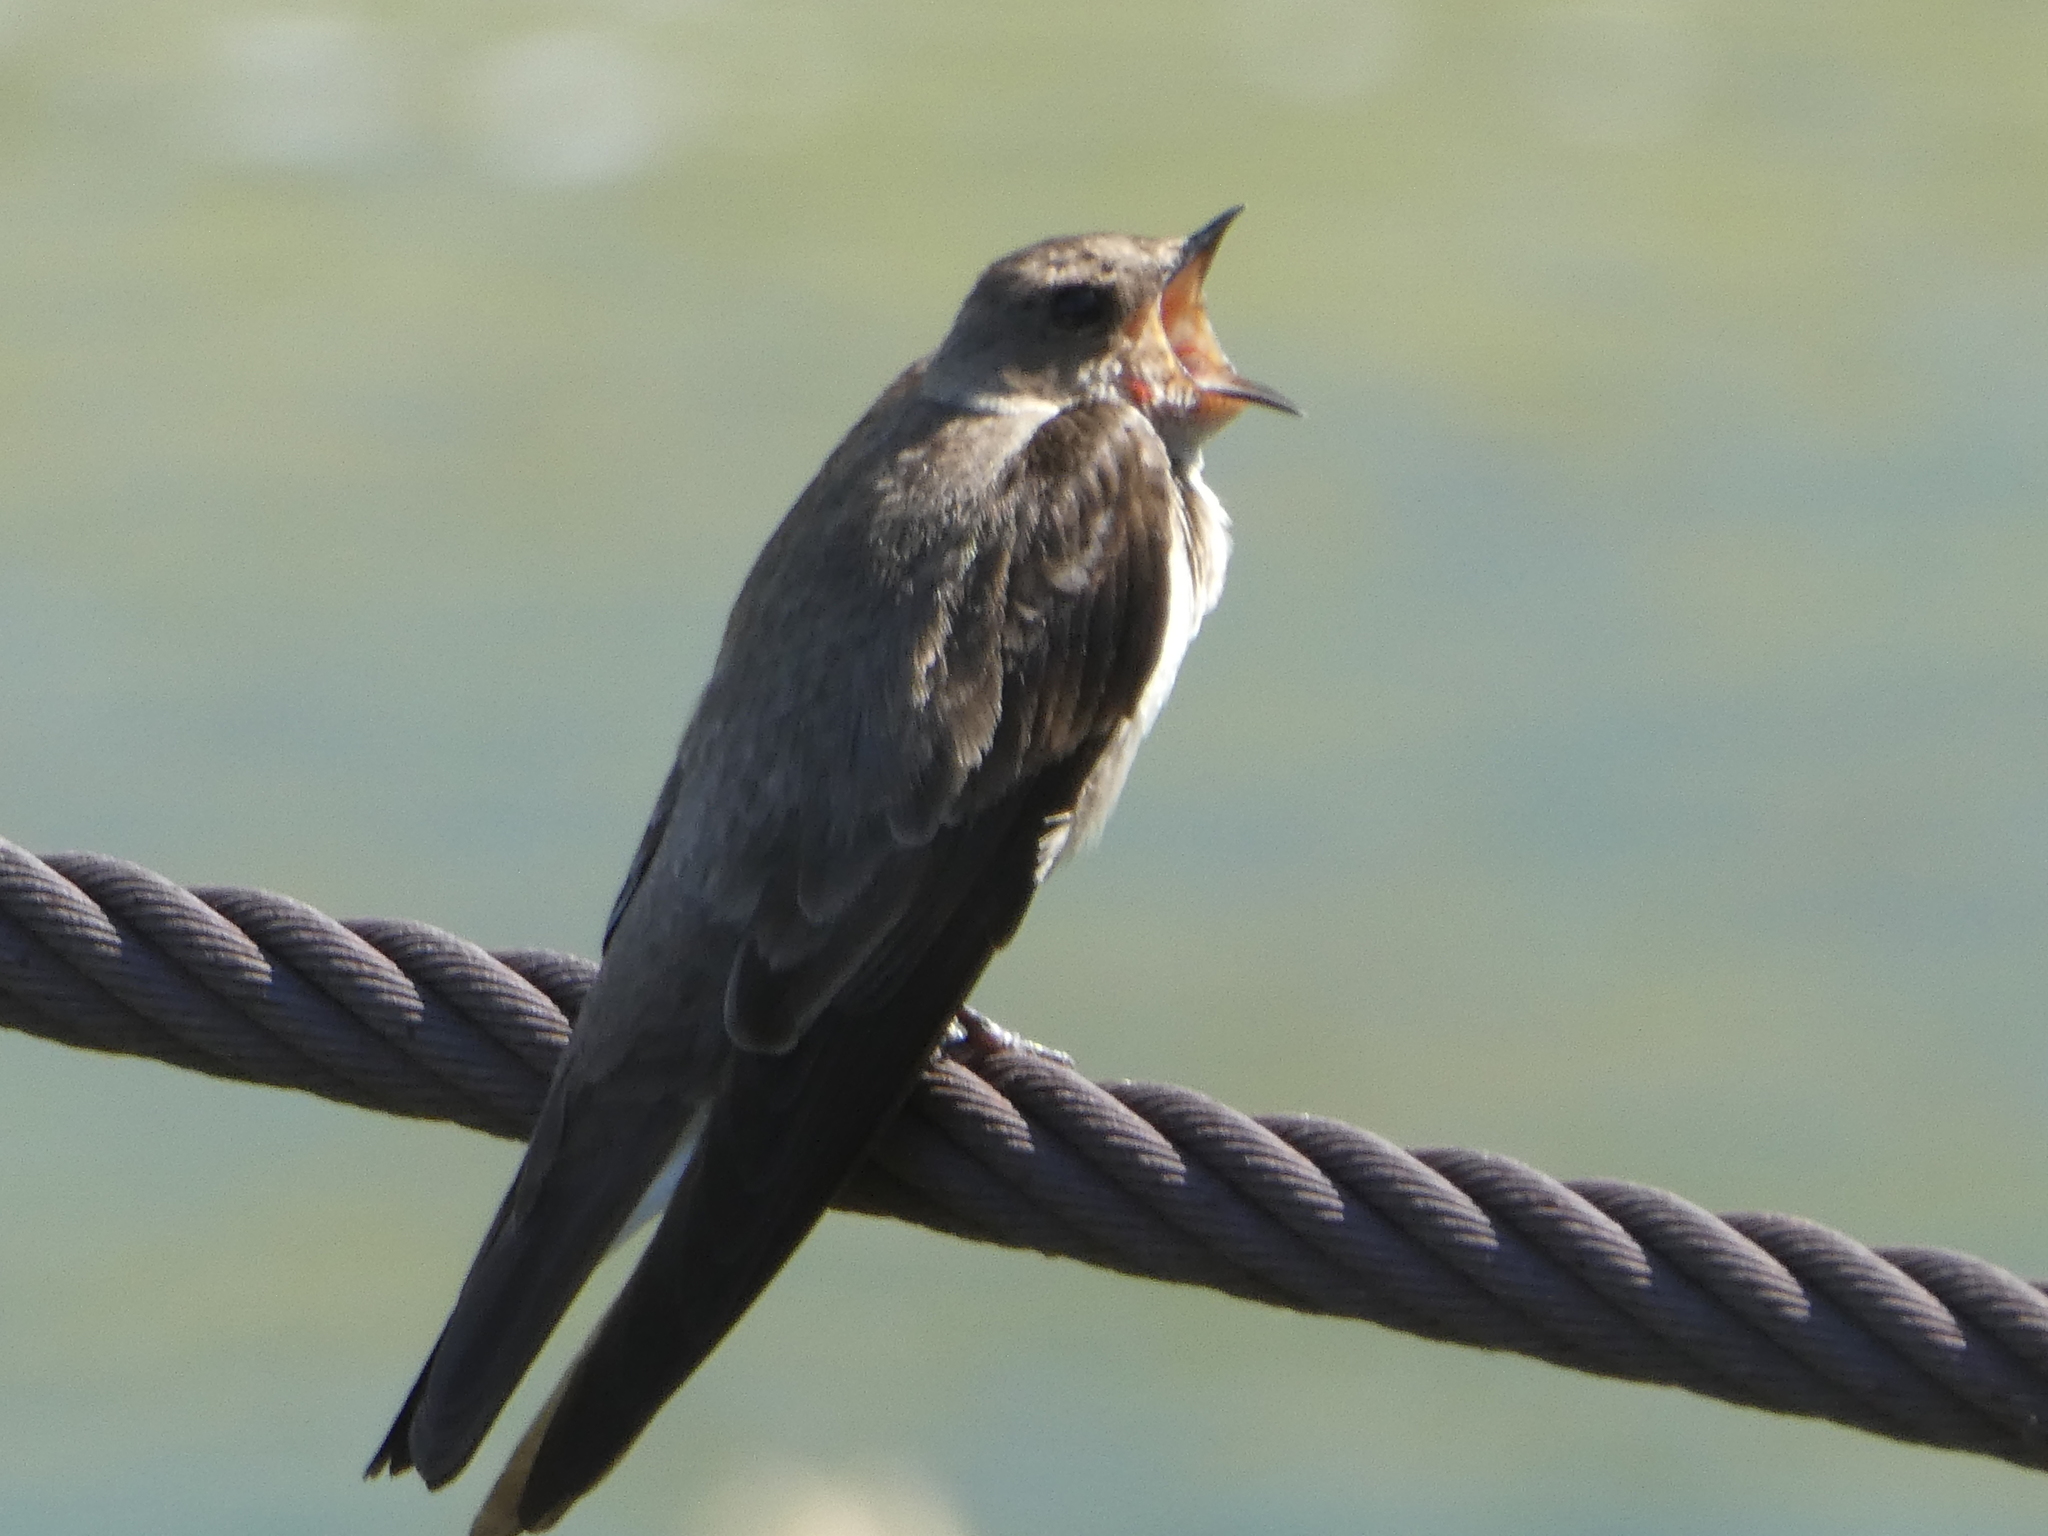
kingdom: Animalia
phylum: Chordata
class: Aves
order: Passeriformes
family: Hirundinidae
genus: Stelgidopteryx
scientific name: Stelgidopteryx serripennis
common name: Northern rough-winged swallow
